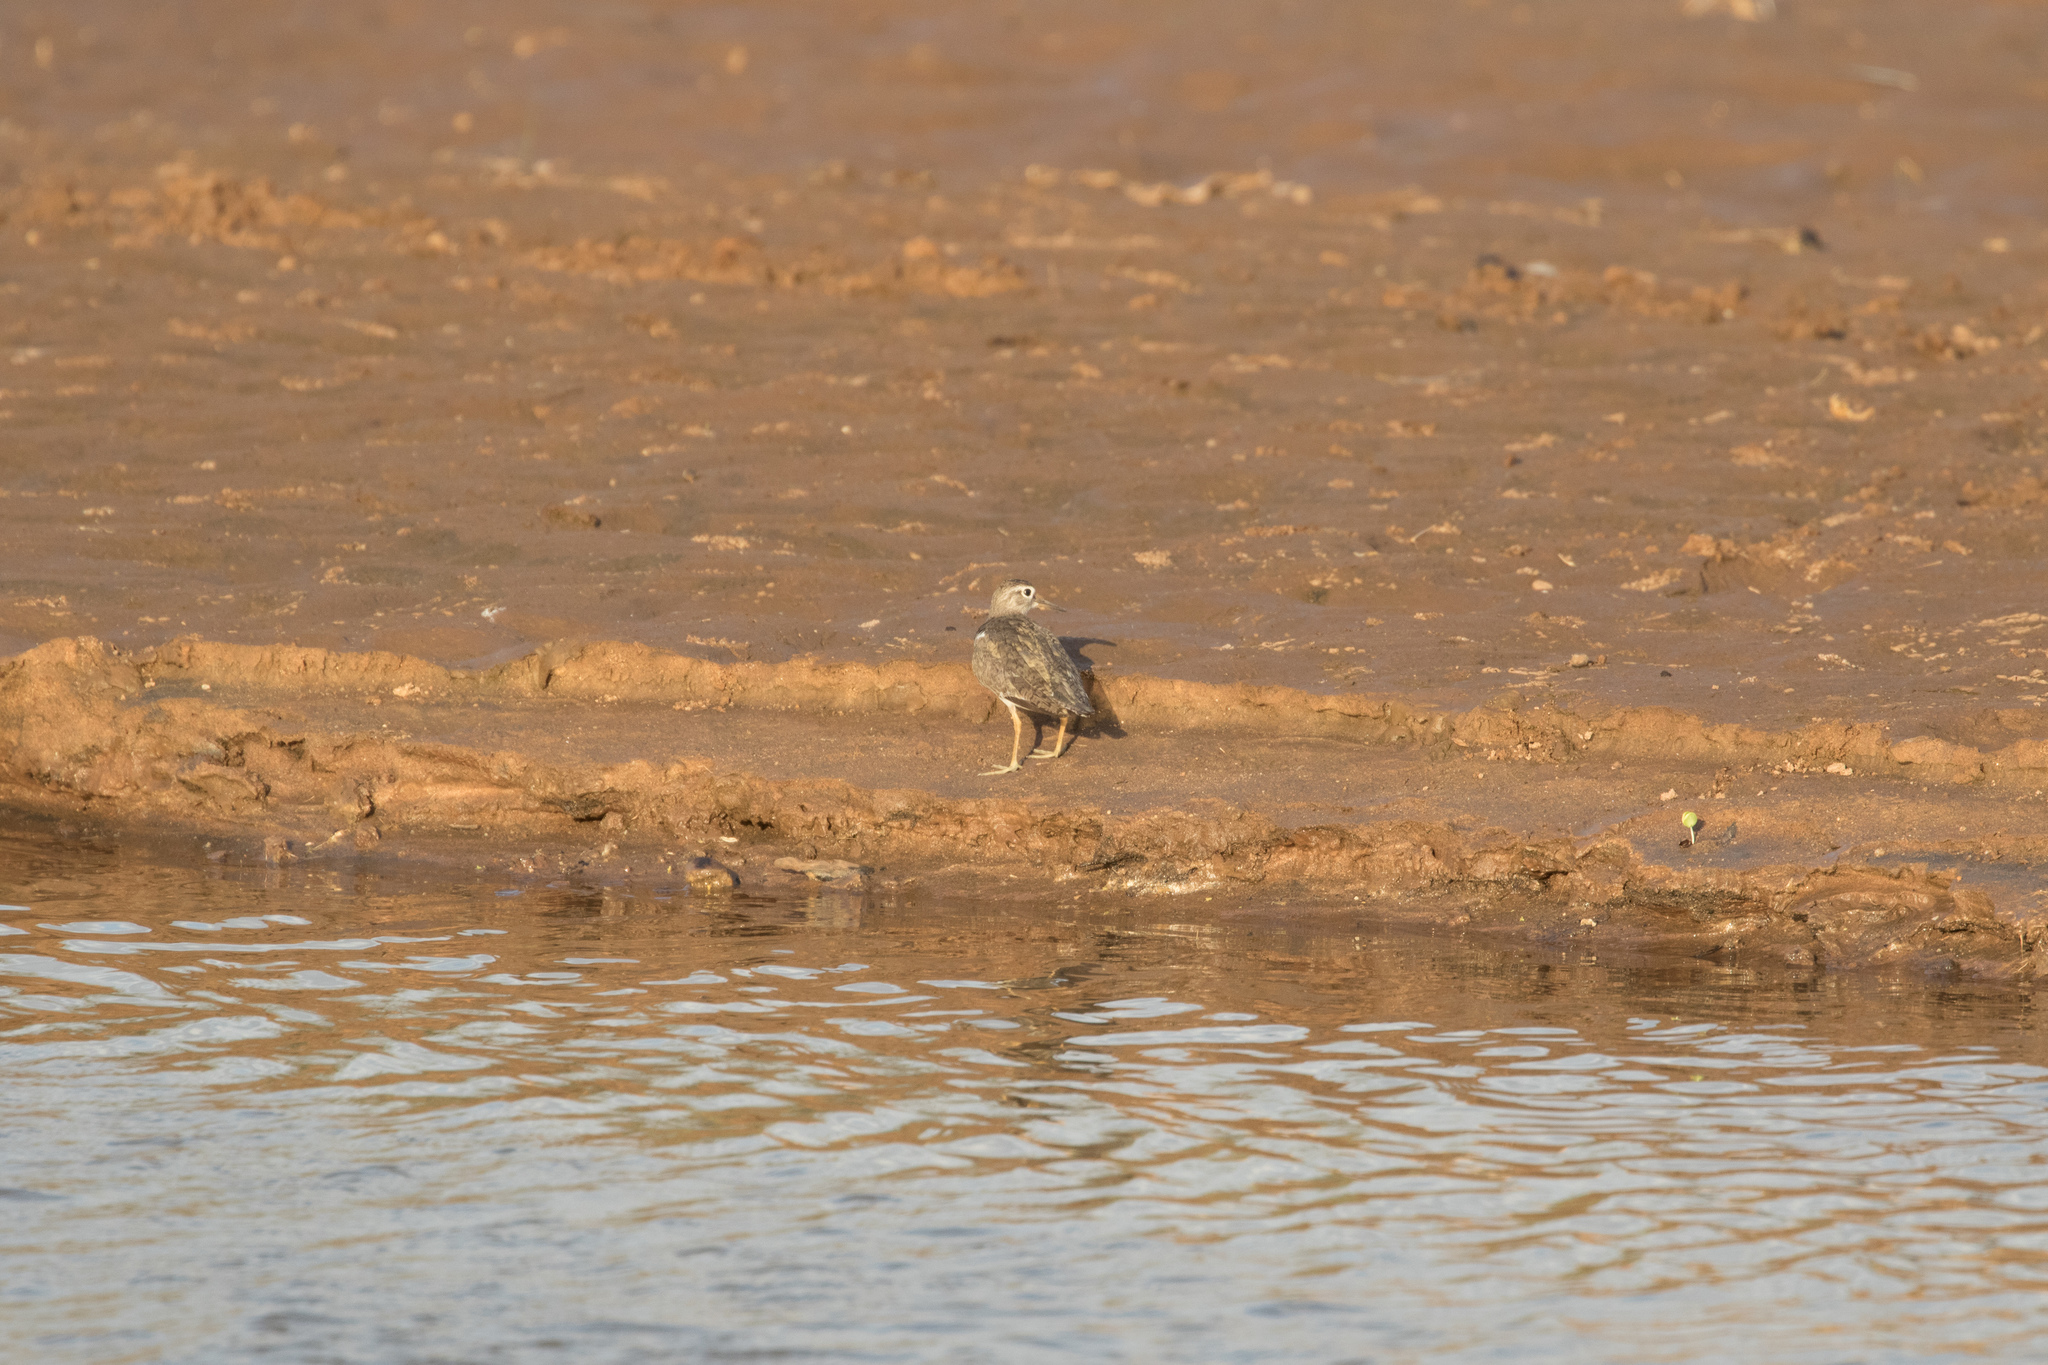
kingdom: Animalia
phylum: Chordata
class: Aves
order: Charadriiformes
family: Scolopacidae
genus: Actitis
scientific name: Actitis hypoleucos
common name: Common sandpiper
